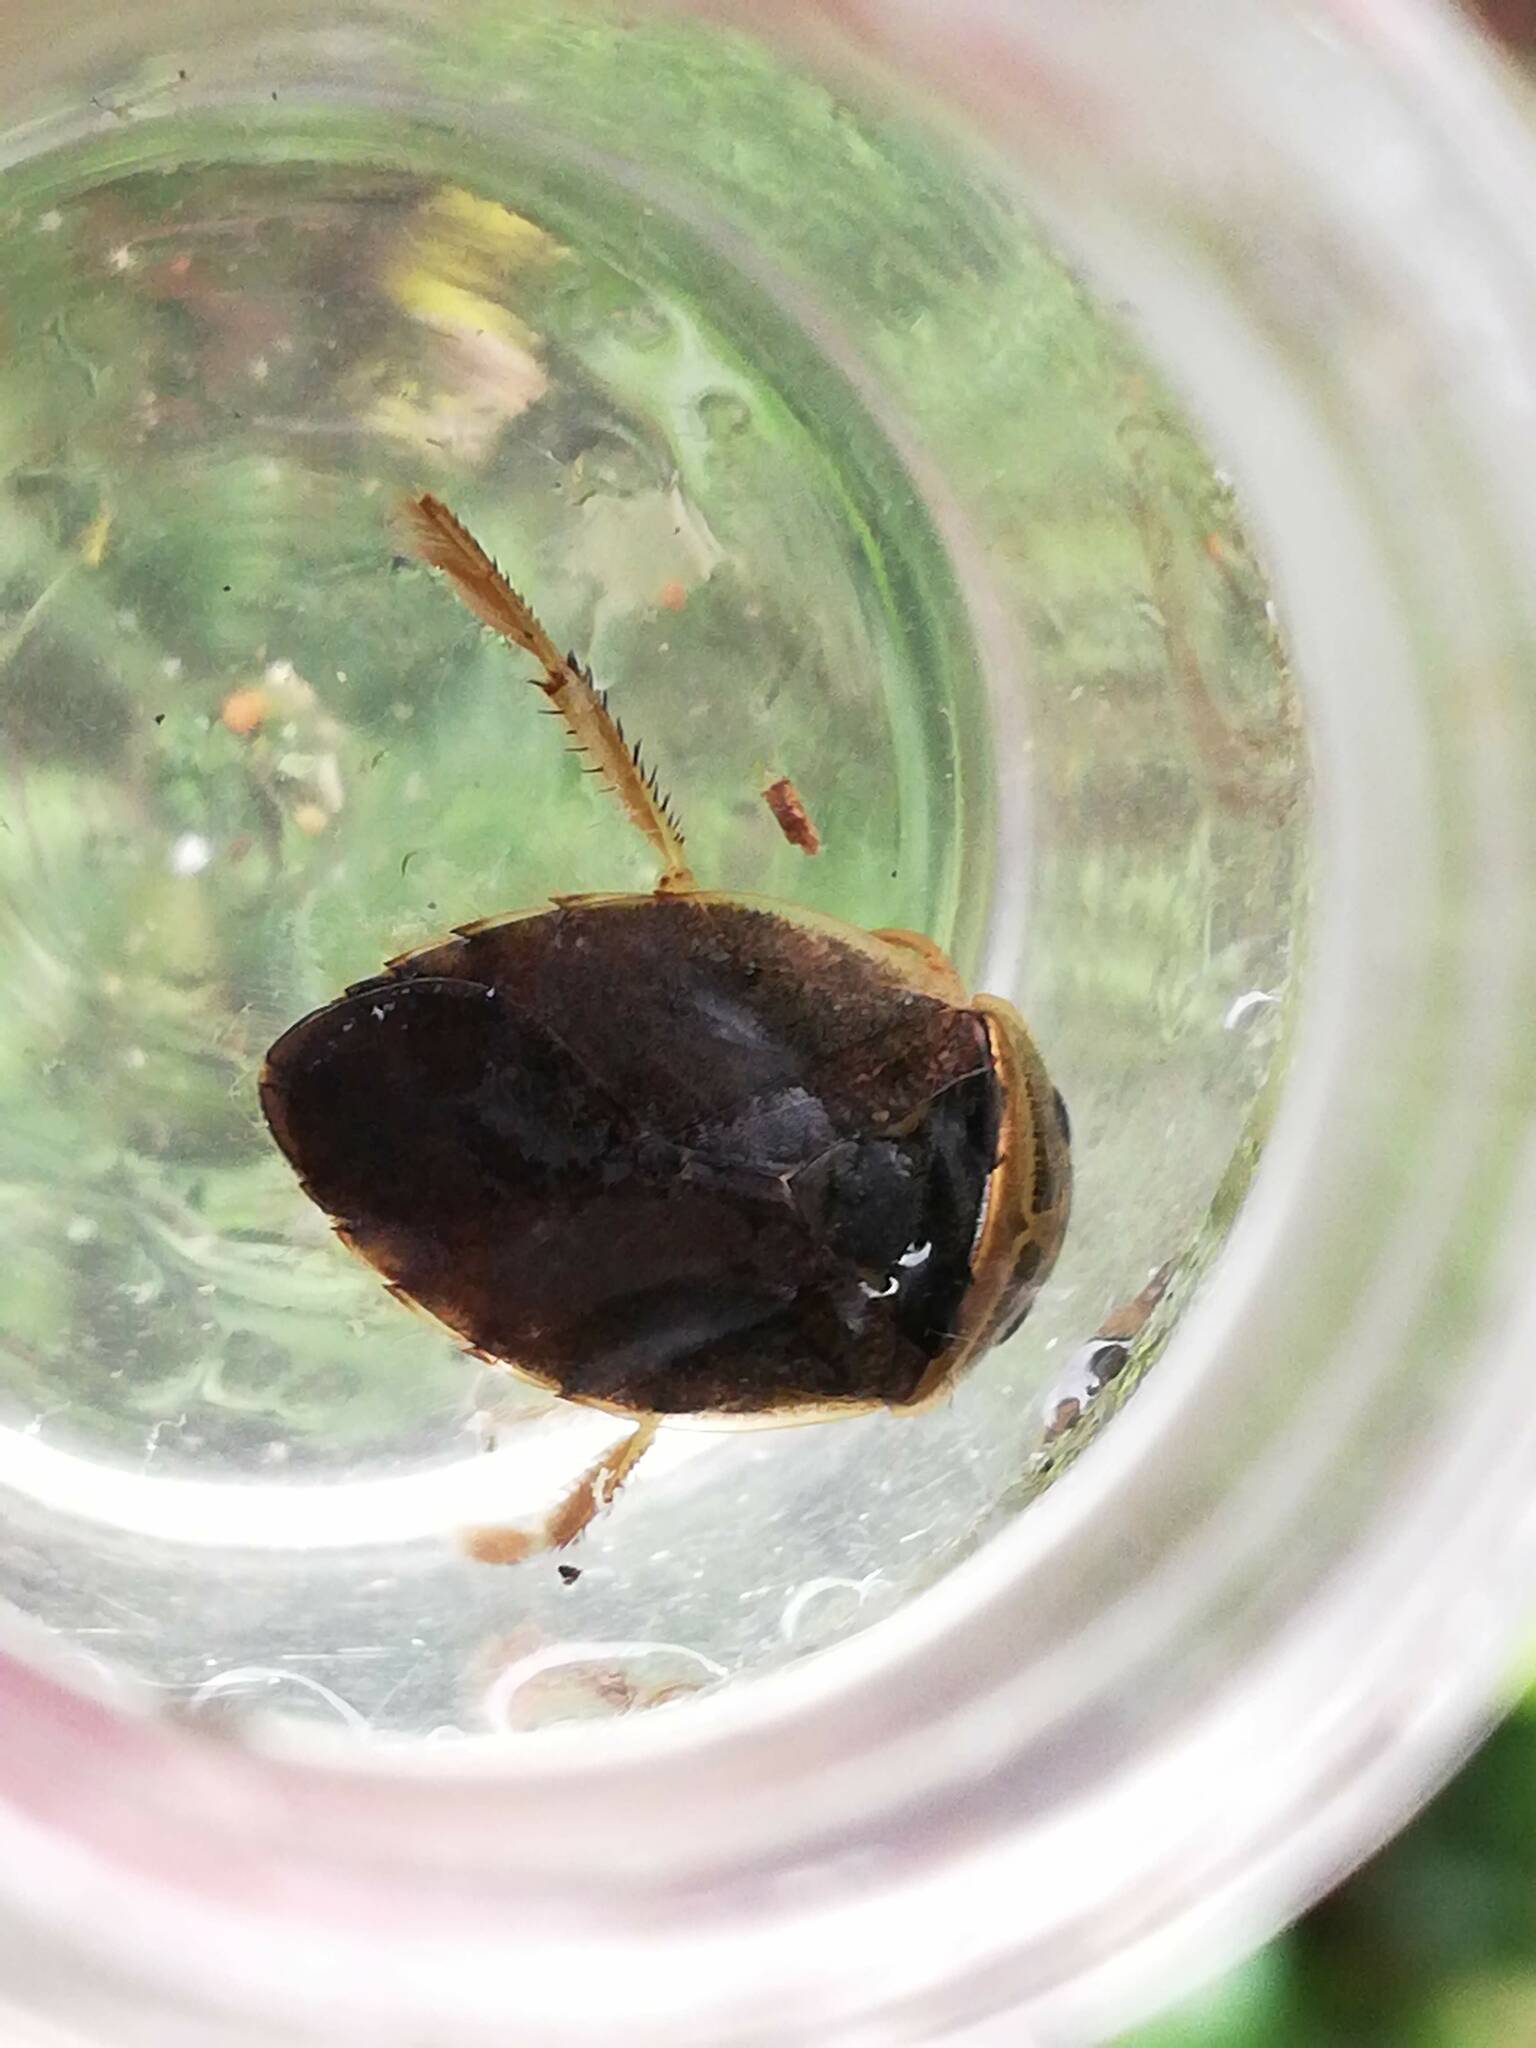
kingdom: Animalia
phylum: Arthropoda
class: Insecta
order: Hemiptera
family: Naucoridae
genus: Ilyocoris
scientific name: Ilyocoris cimicoides
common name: Saucer bugs
